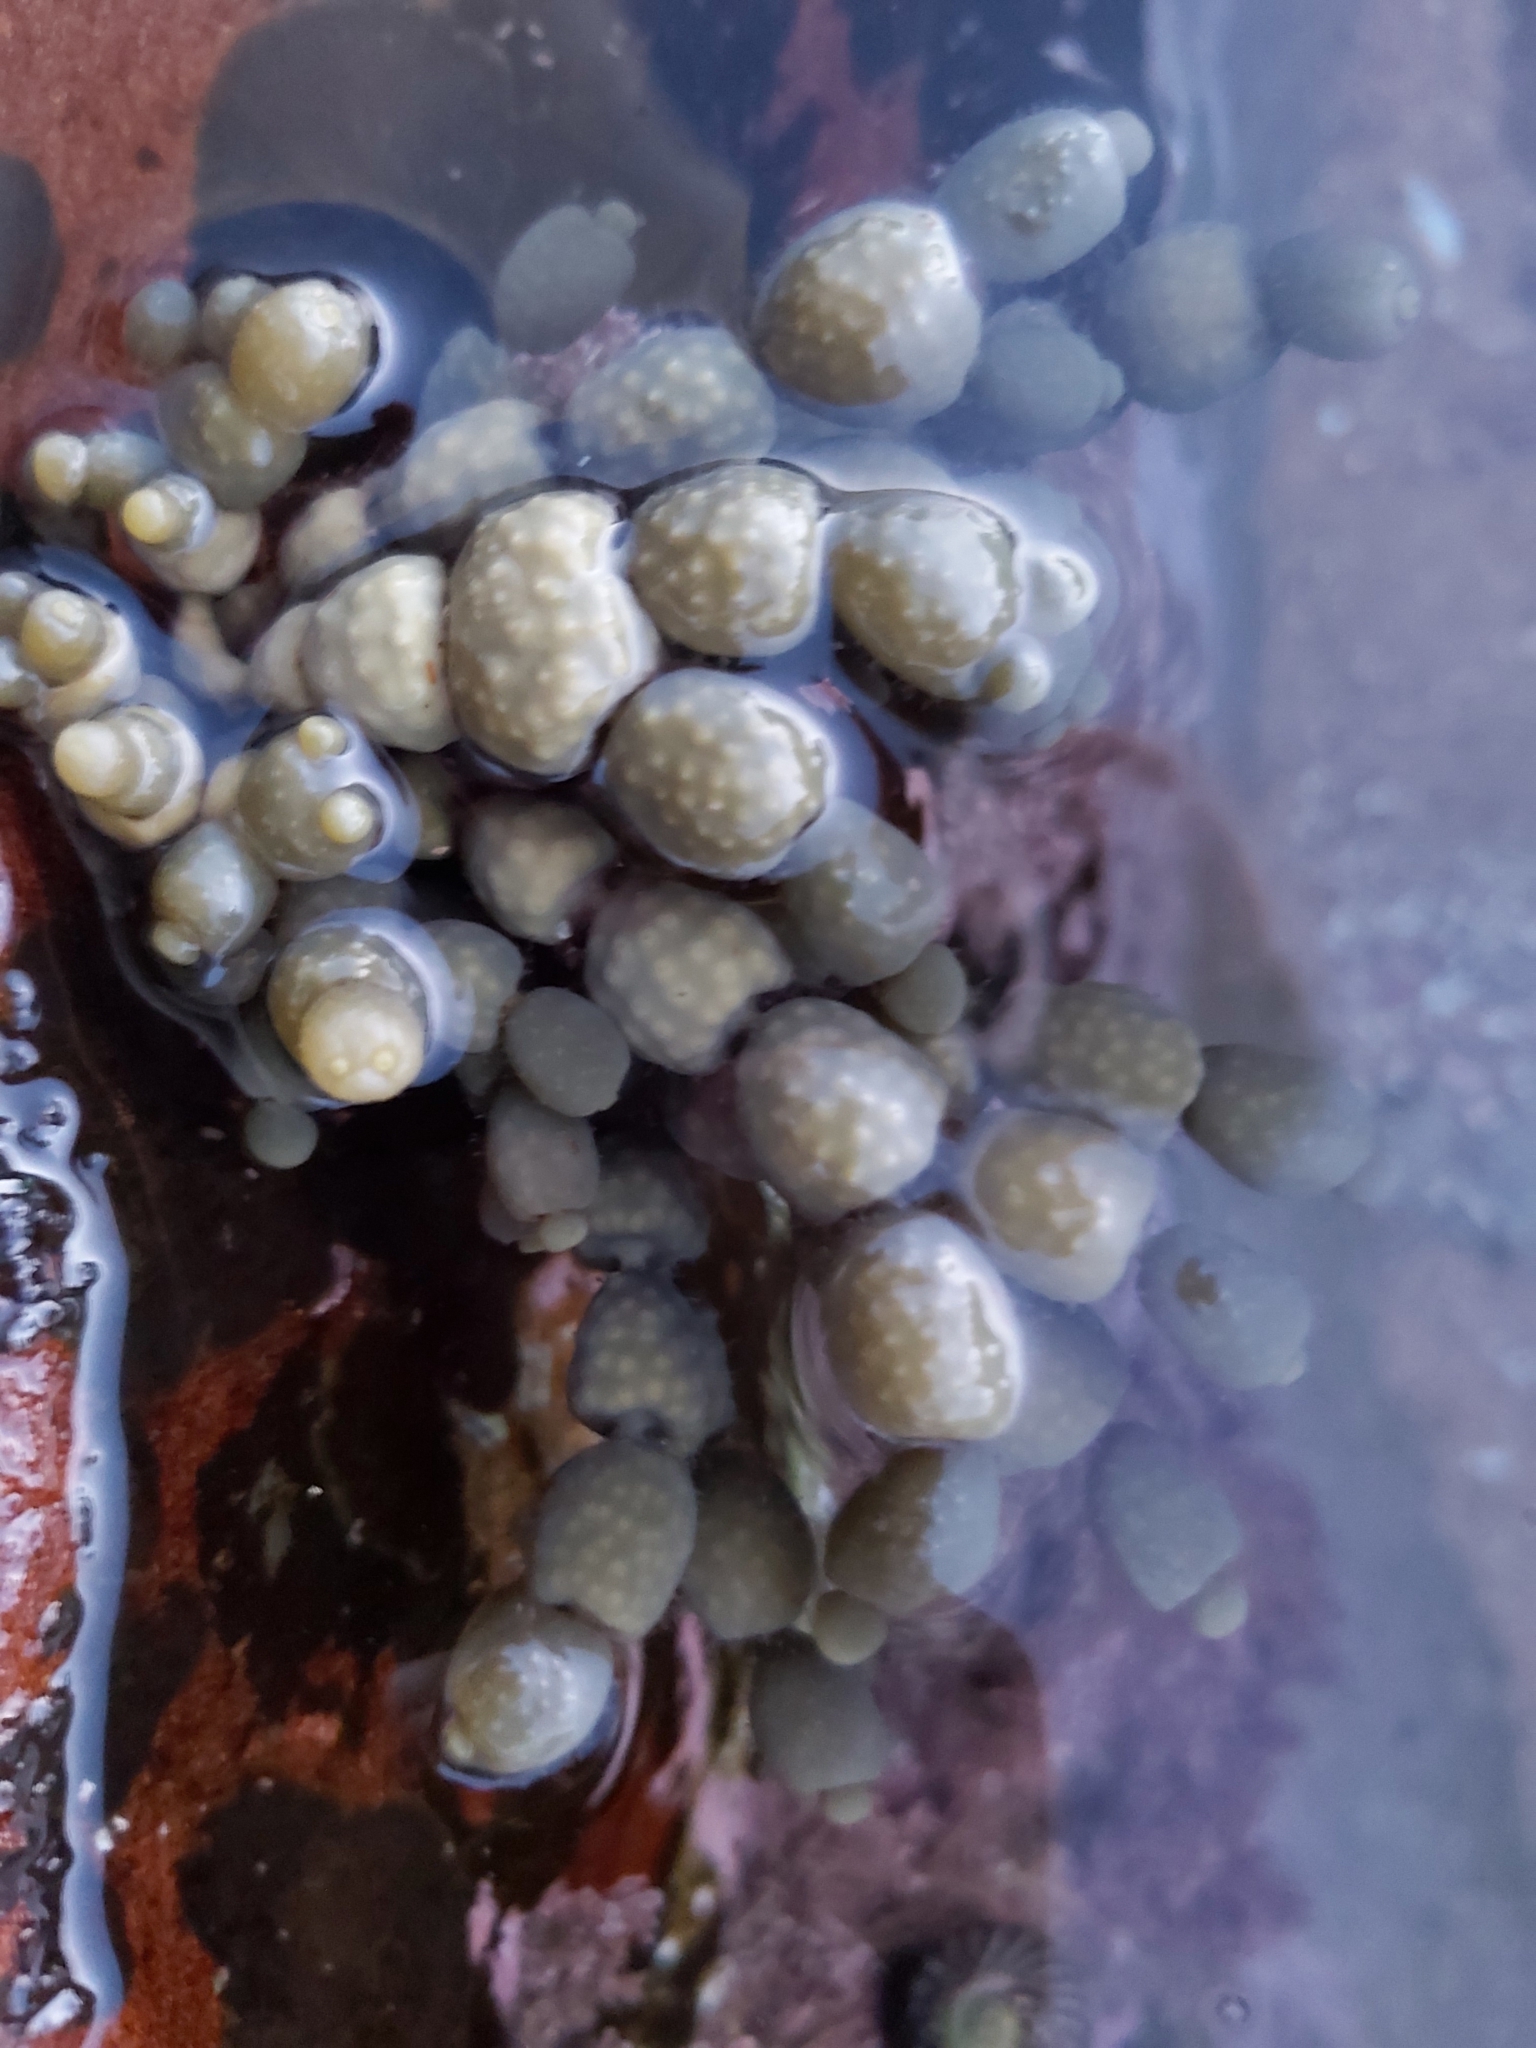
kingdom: Chromista
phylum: Ochrophyta
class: Phaeophyceae
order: Fucales
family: Hormosiraceae
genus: Hormosira
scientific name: Hormosira banksii
